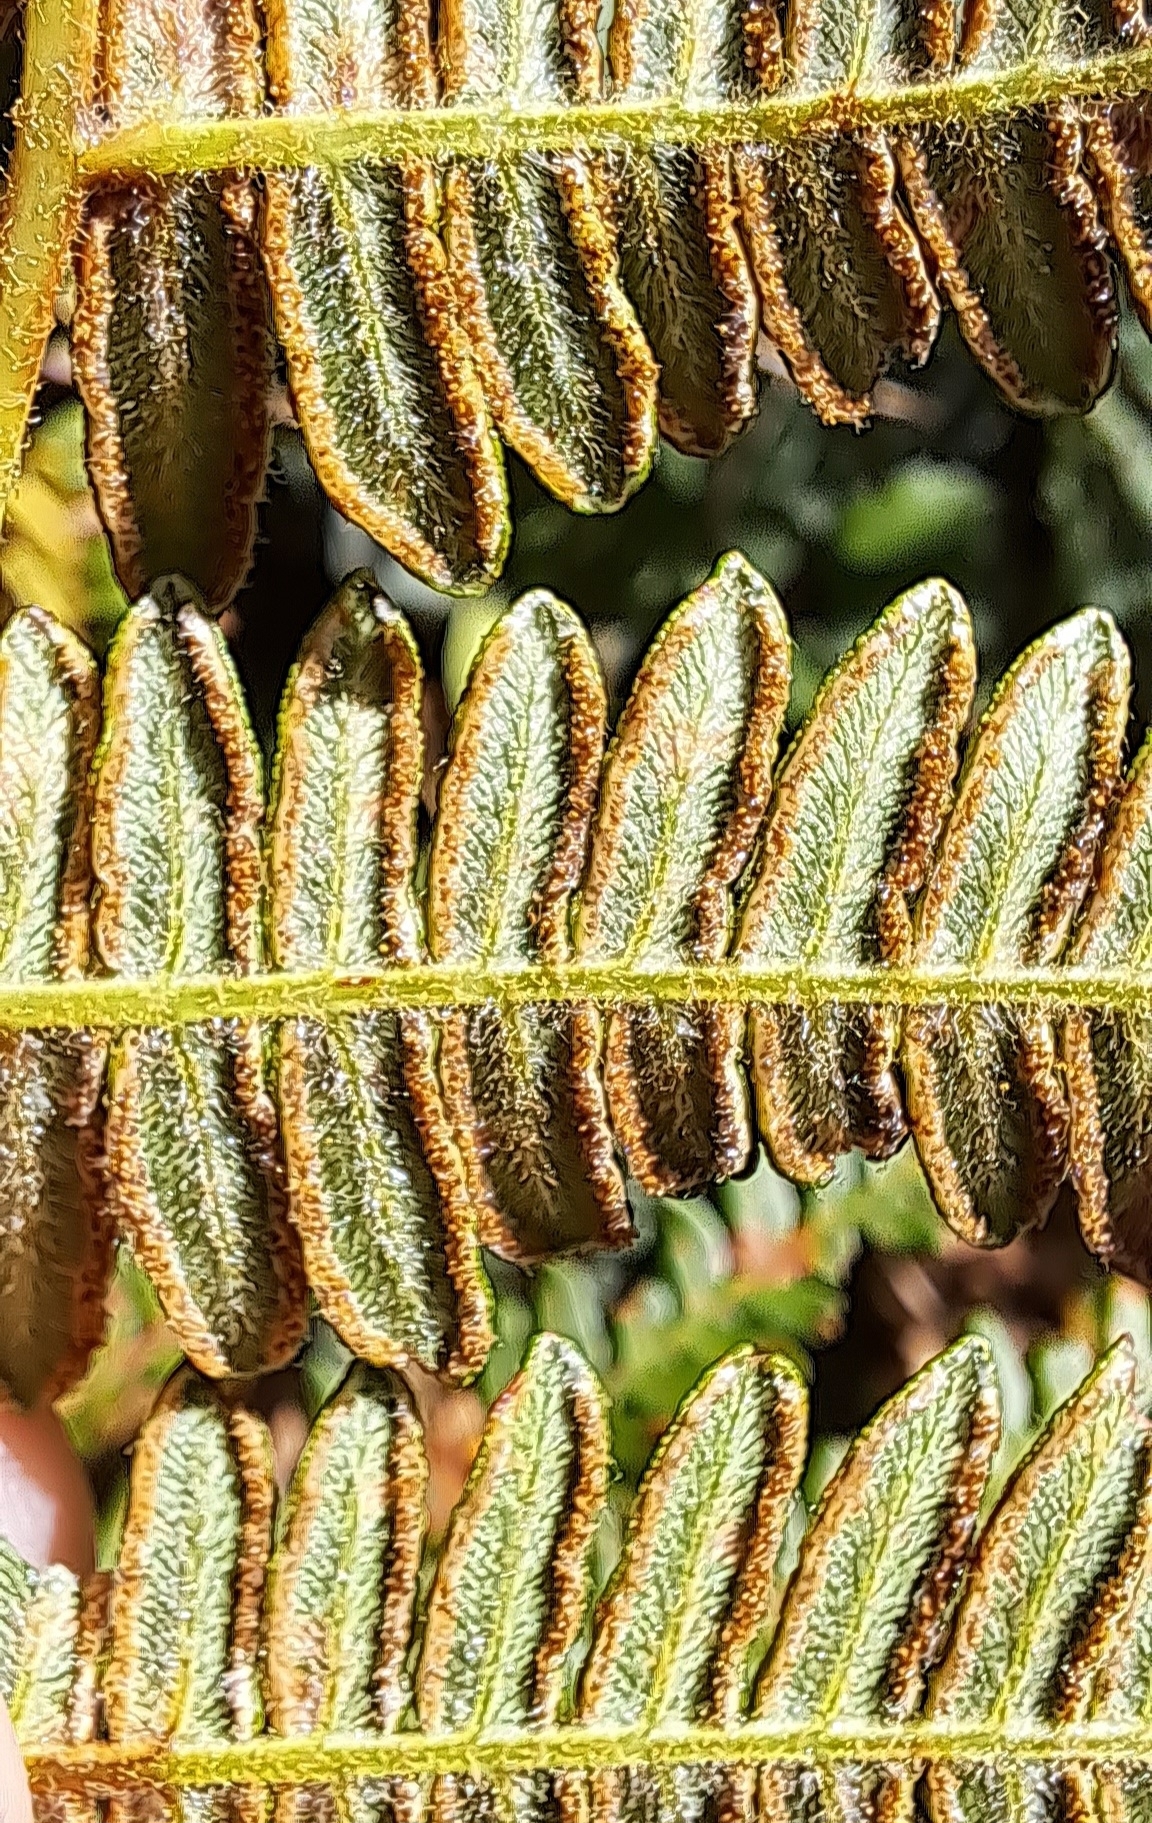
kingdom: Plantae
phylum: Tracheophyta
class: Polypodiopsida
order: Polypodiales
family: Dennstaedtiaceae
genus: Pteridium
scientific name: Pteridium aquilinum
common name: Bracken
